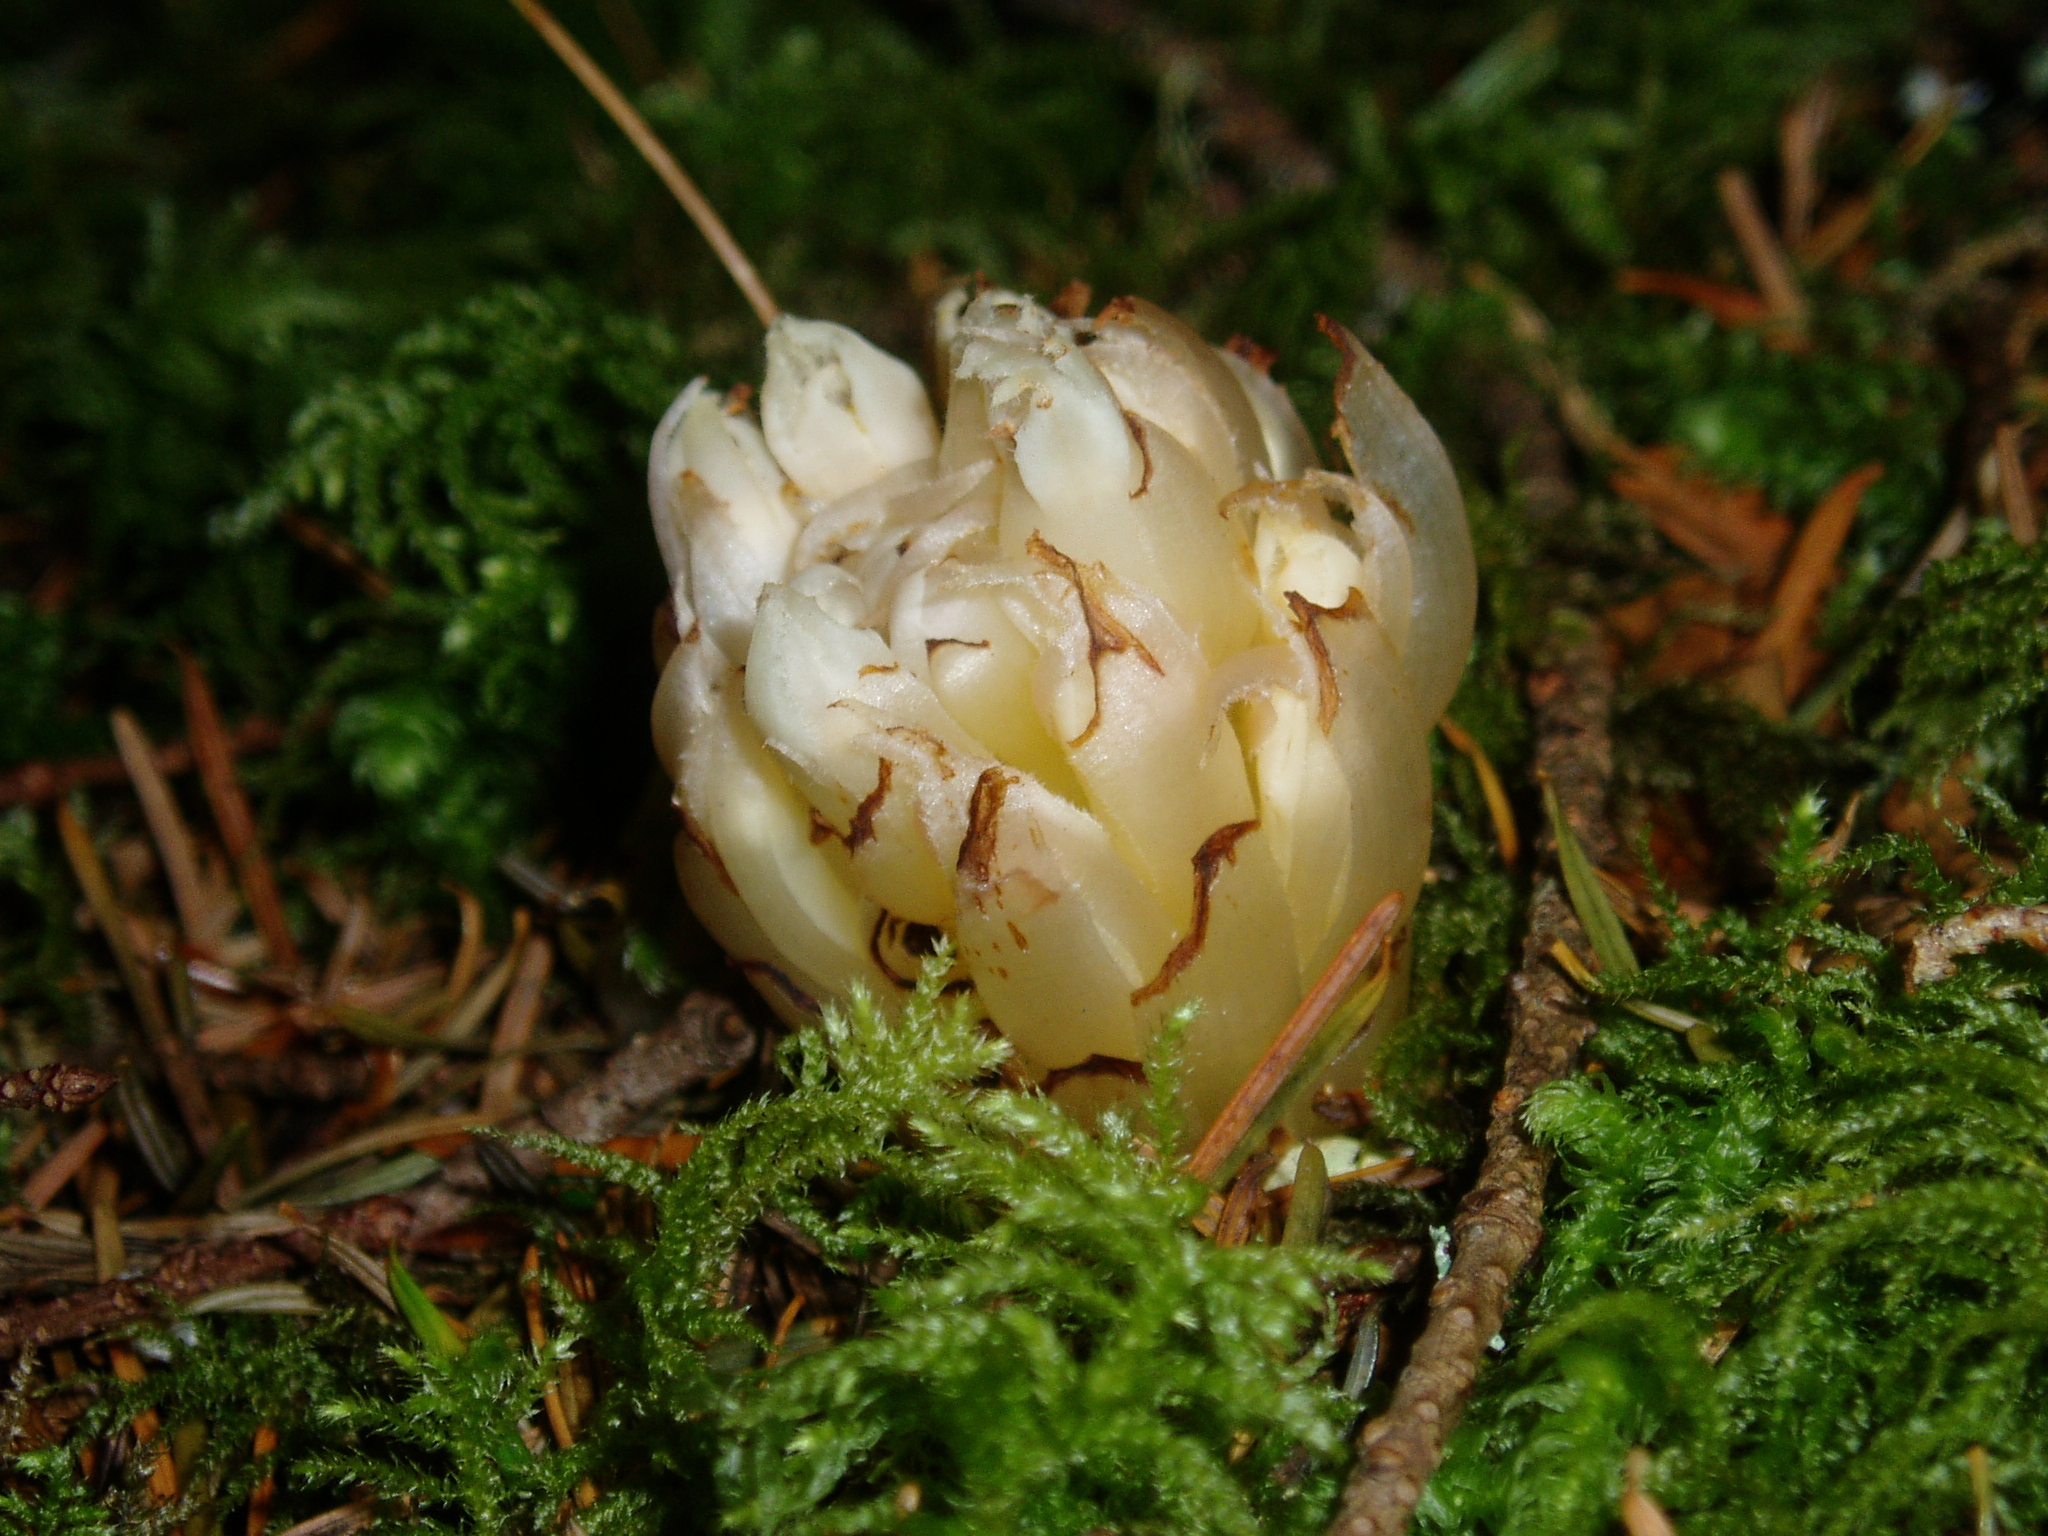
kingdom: Plantae
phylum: Tracheophyta
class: Magnoliopsida
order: Ericales
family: Ericaceae
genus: Hemitomes
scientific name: Hemitomes congestum
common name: Cone plant
